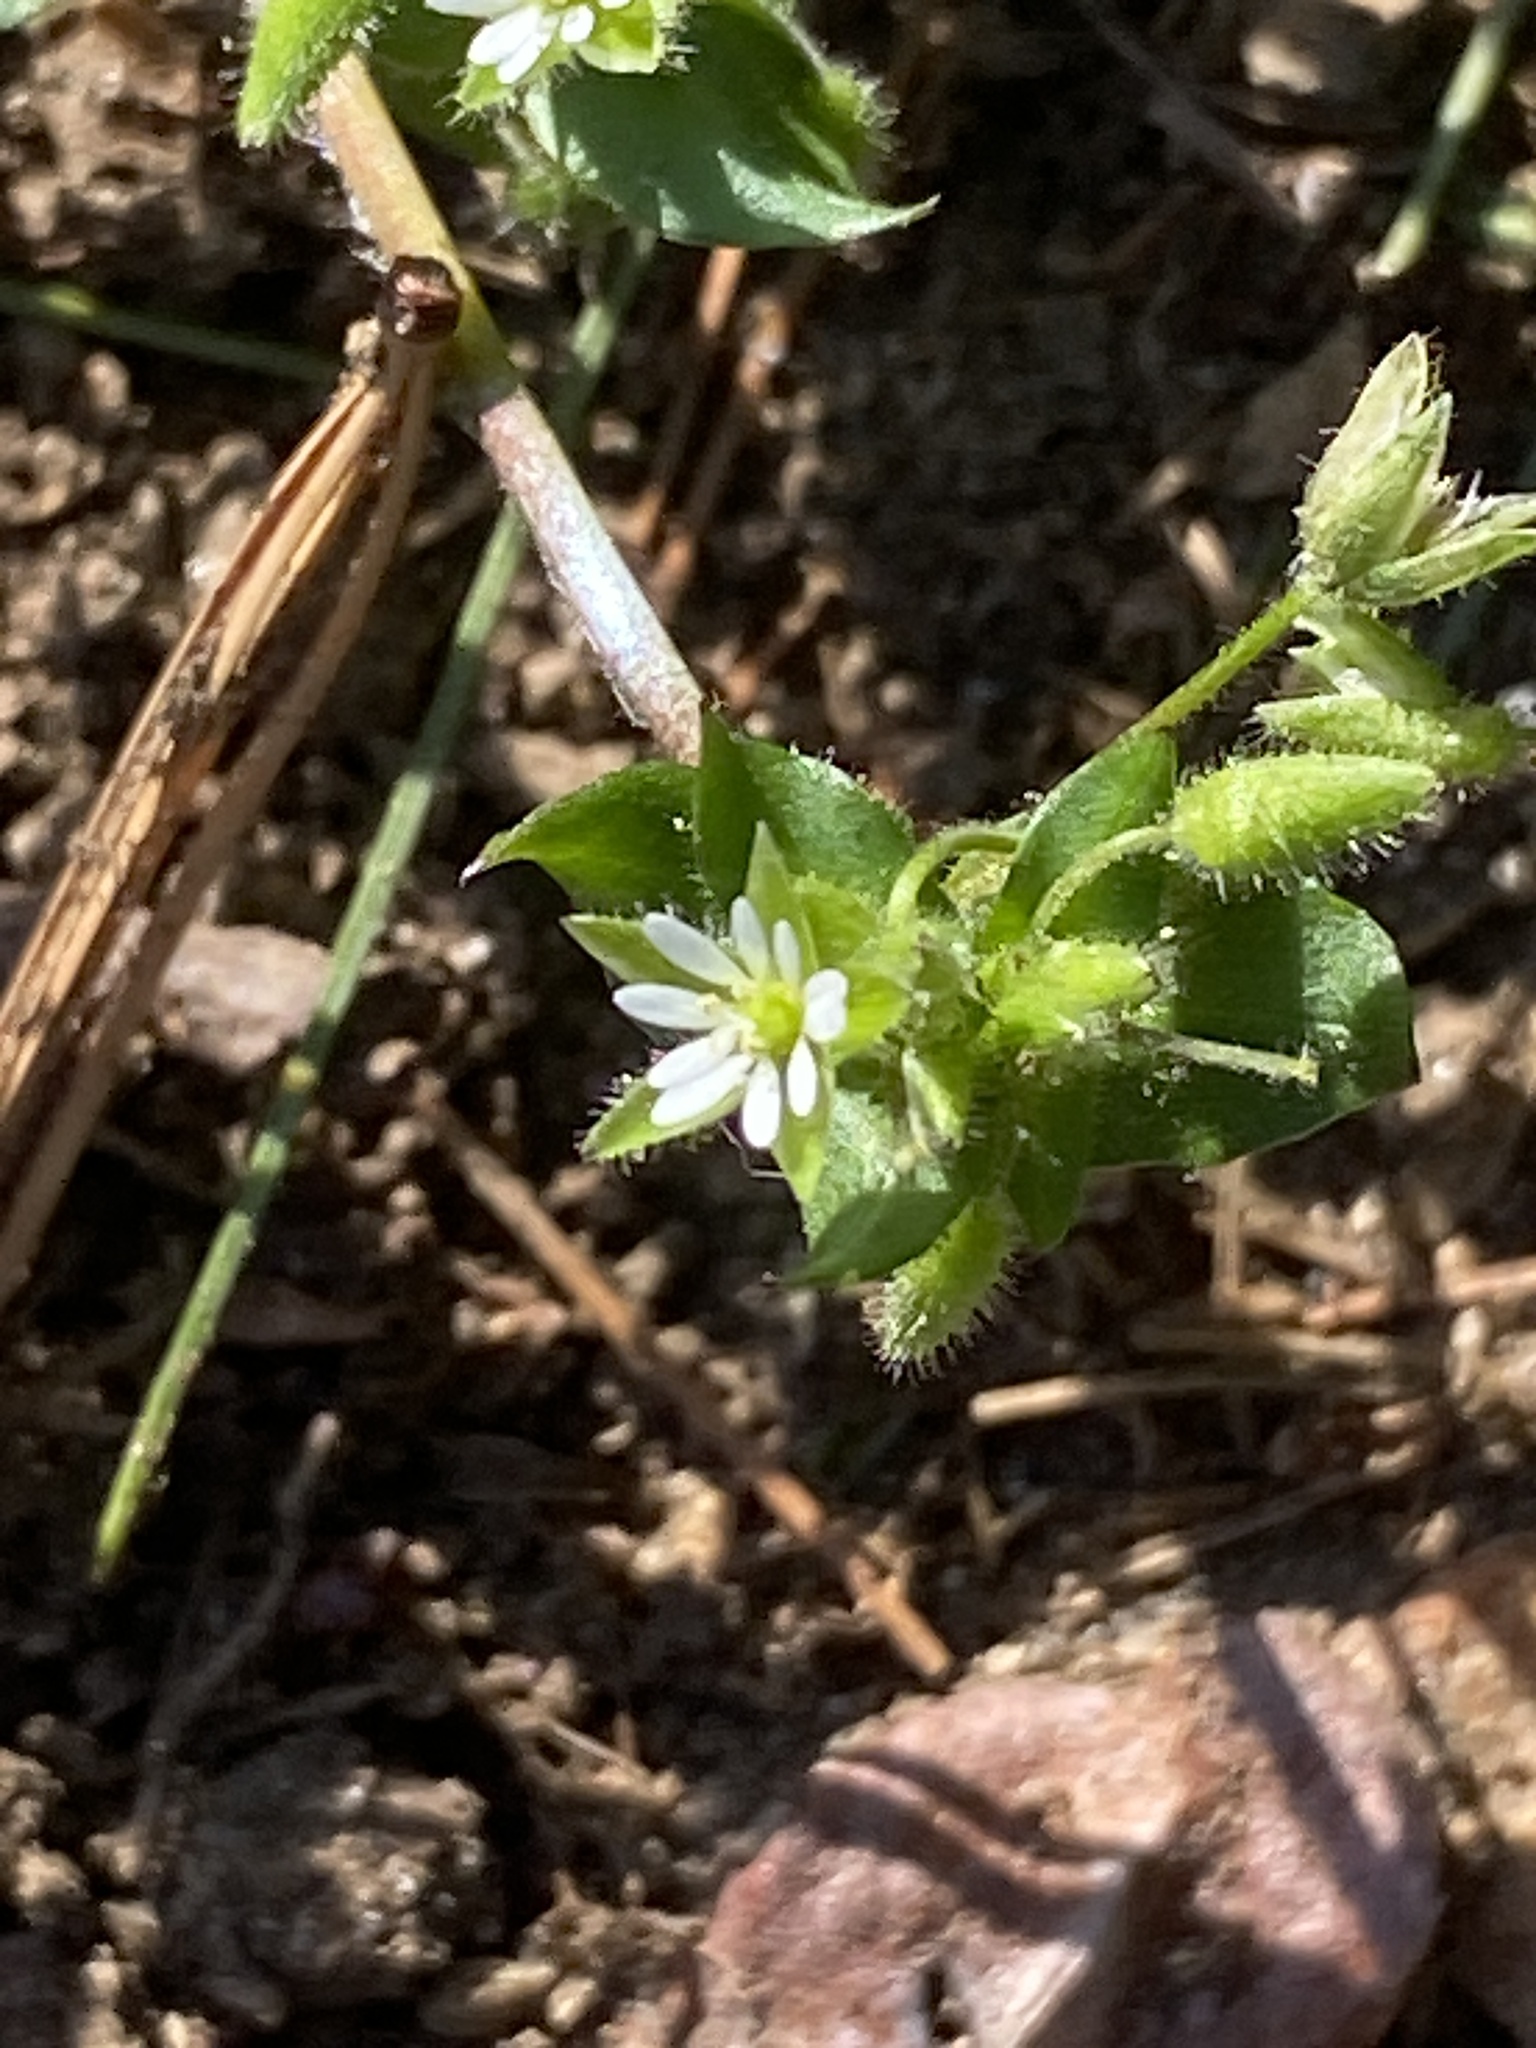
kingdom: Plantae
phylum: Tracheophyta
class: Magnoliopsida
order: Caryophyllales
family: Caryophyllaceae
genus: Stellaria
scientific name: Stellaria media
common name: Common chickweed
